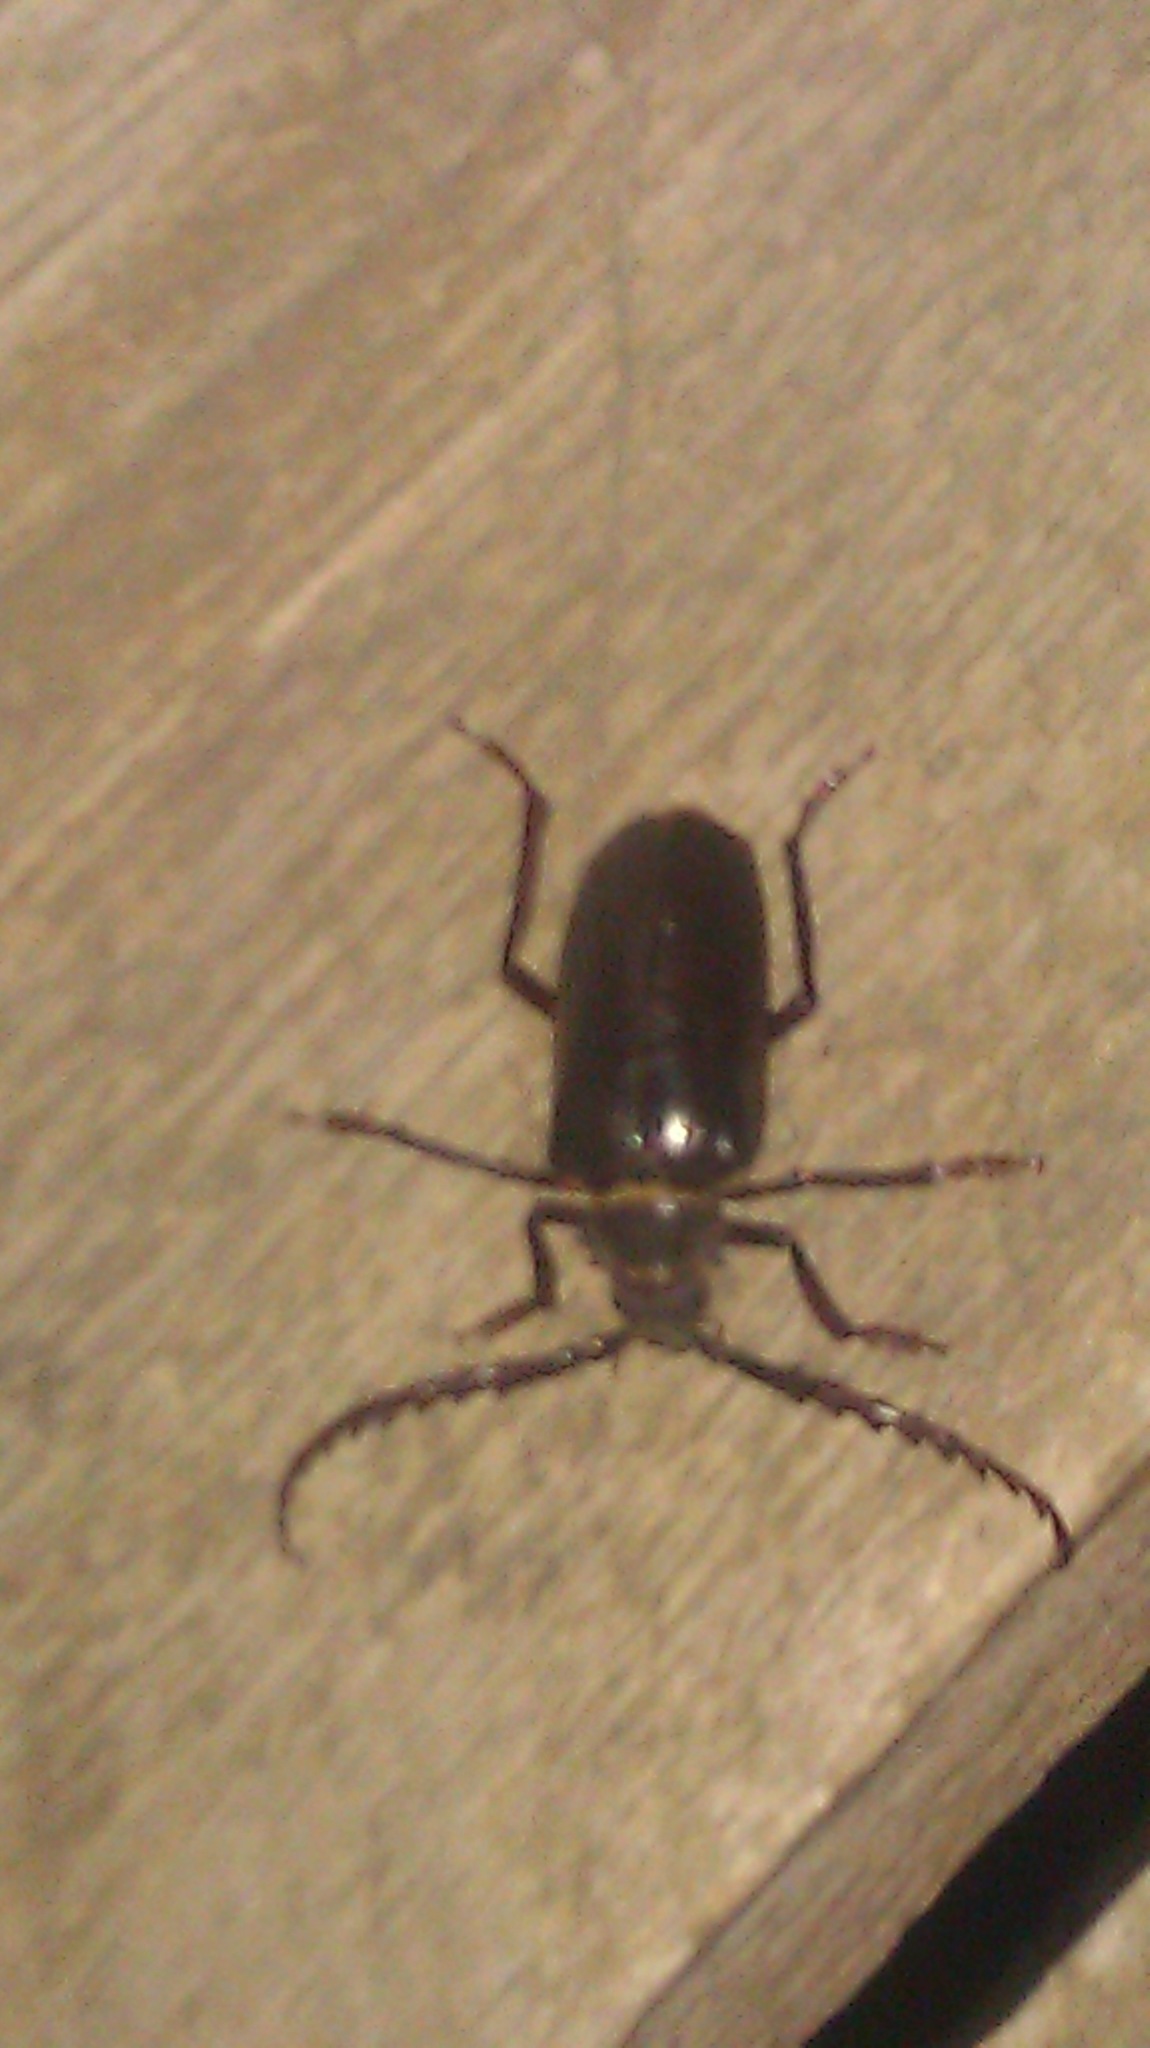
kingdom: Animalia
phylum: Arthropoda
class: Insecta
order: Coleoptera
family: Cerambycidae
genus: Prionus
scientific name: Prionus californicus
